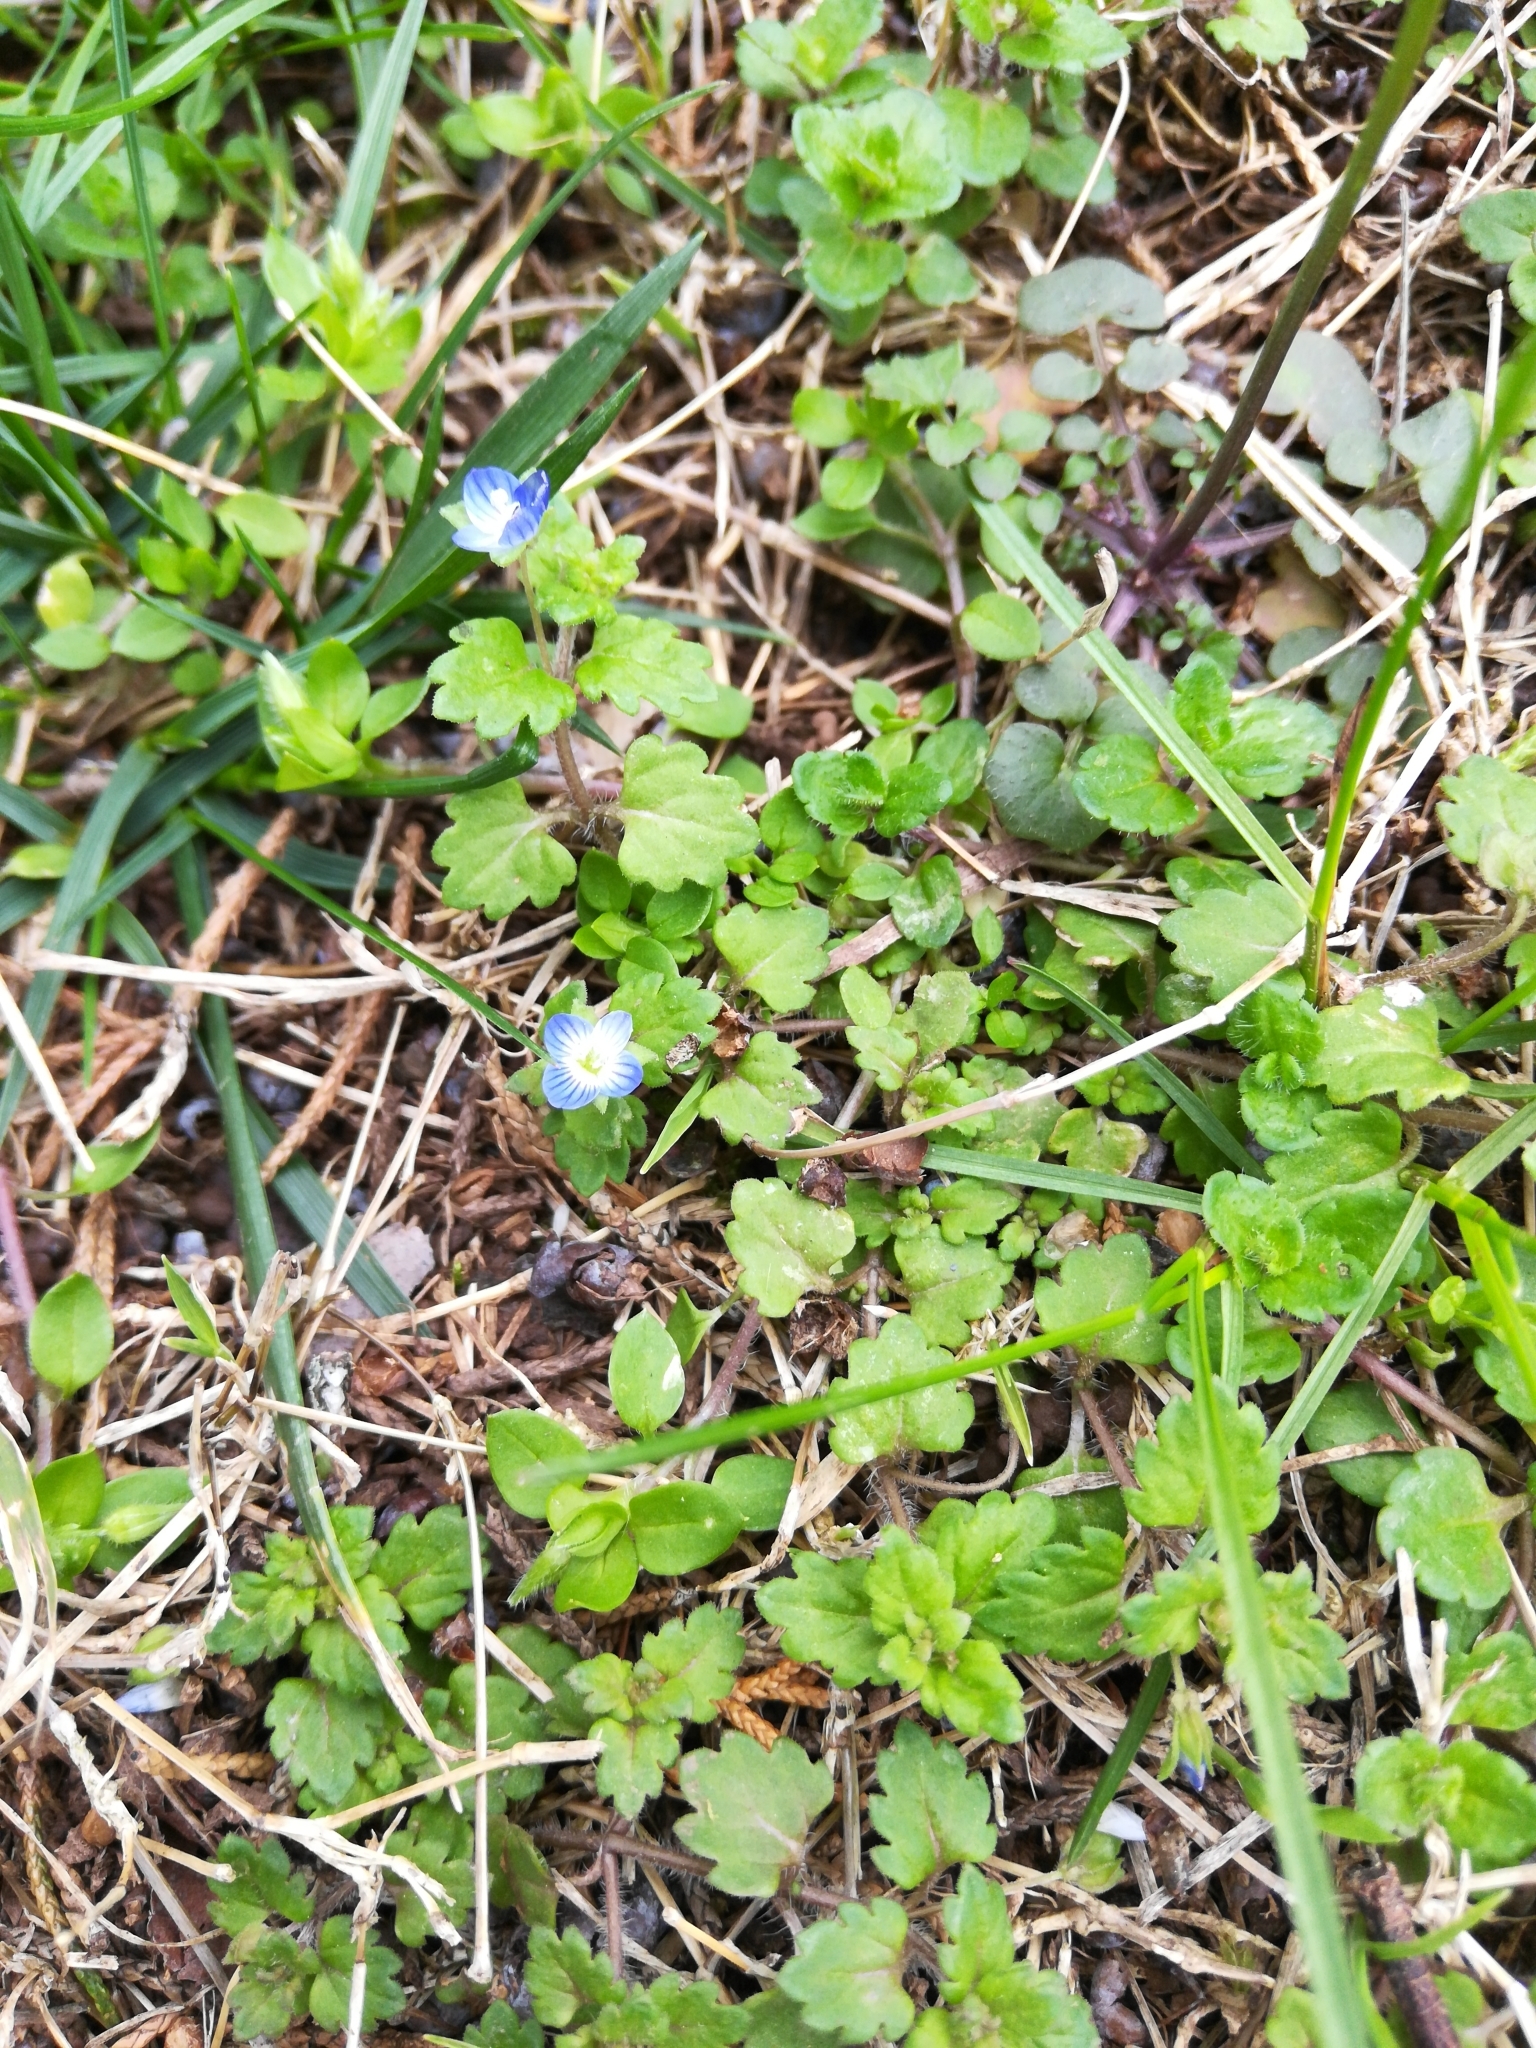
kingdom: Plantae
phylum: Tracheophyta
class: Magnoliopsida
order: Lamiales
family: Plantaginaceae
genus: Veronica
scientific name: Veronica persica
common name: Common field-speedwell
